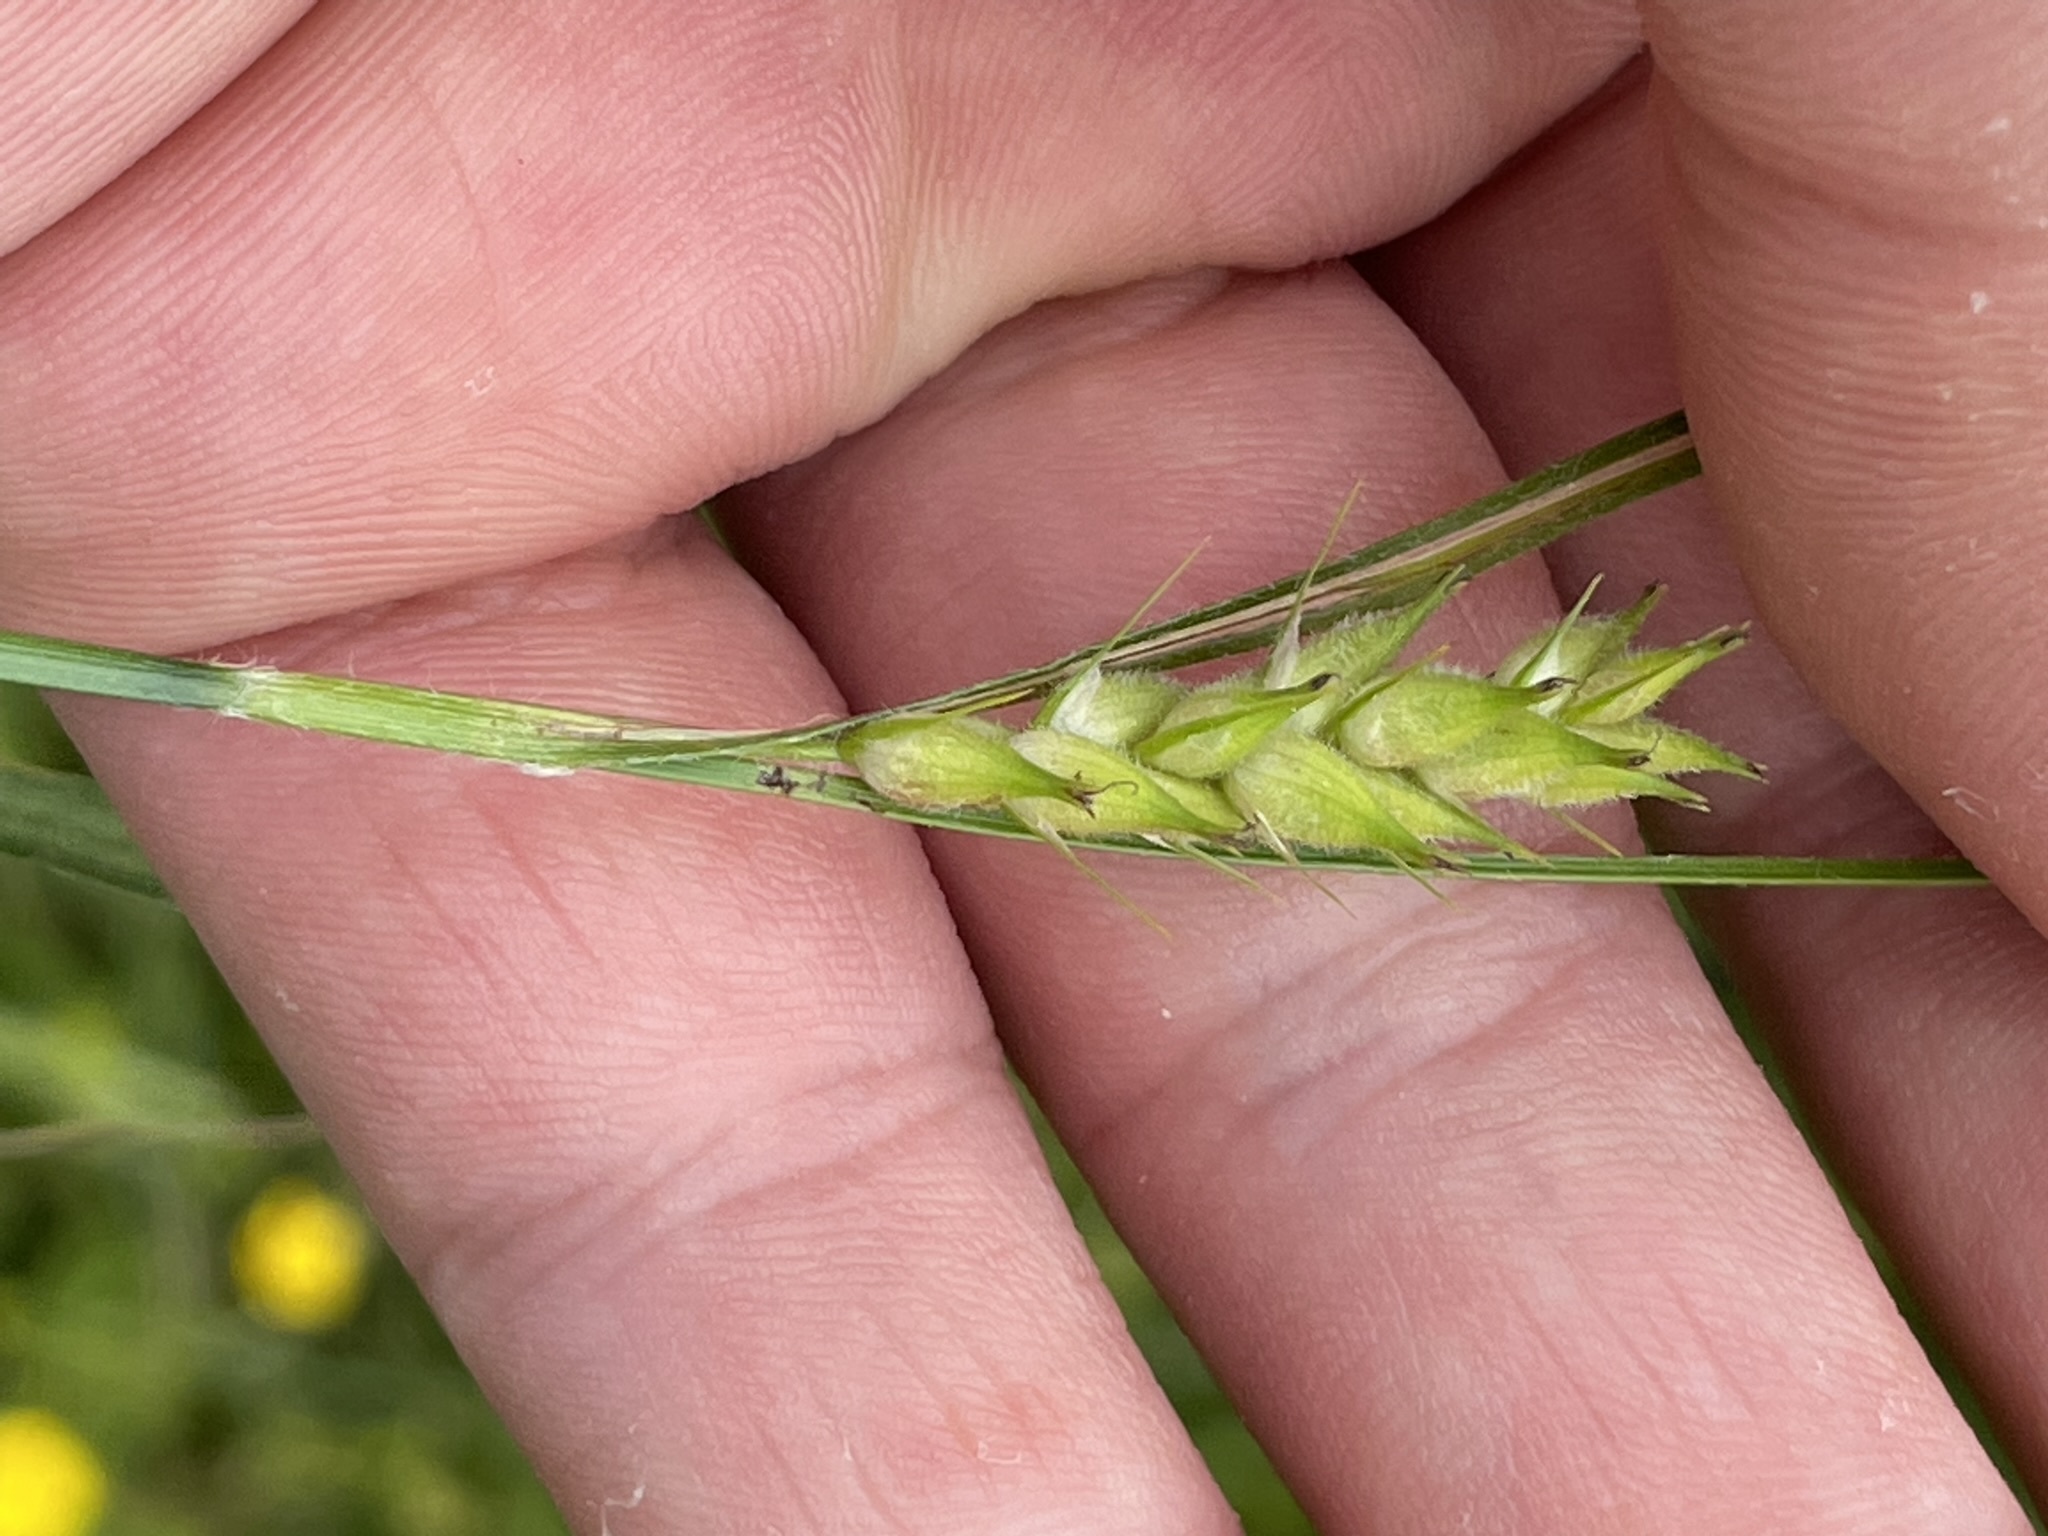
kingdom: Plantae
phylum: Tracheophyta
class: Liliopsida
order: Poales
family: Cyperaceae
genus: Carex
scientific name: Carex hirta
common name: Hairy sedge
